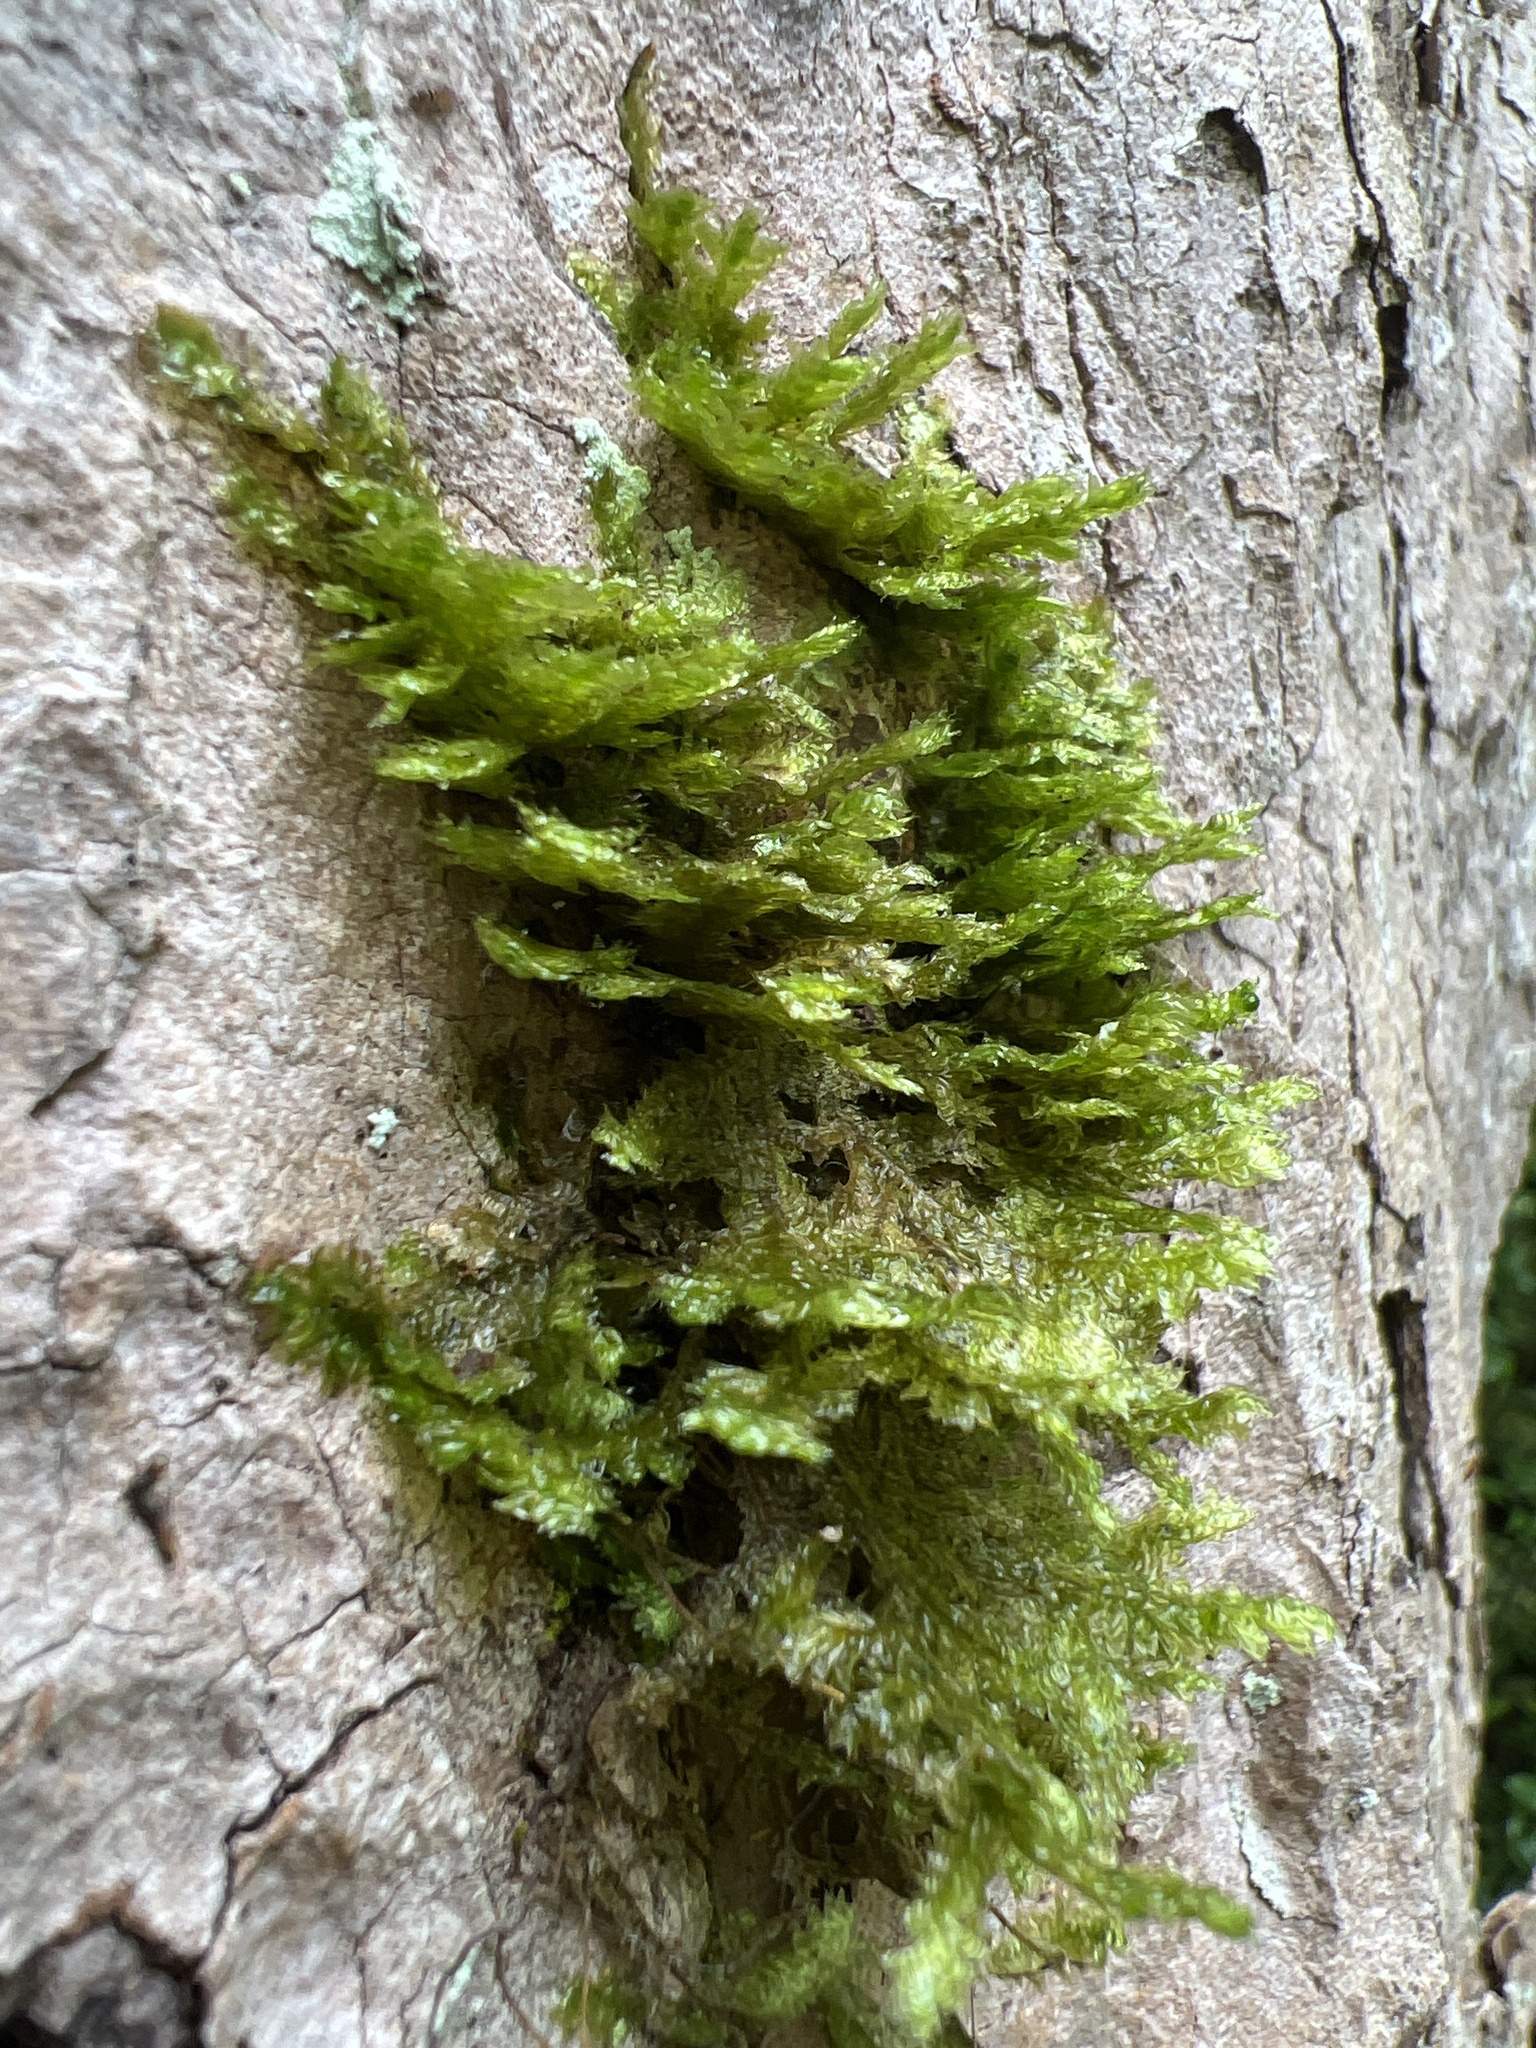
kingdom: Plantae
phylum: Bryophyta
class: Bryopsida
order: Hypnales
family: Neckeraceae
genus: Neckera
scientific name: Neckera pennata
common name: Feathery neckera
